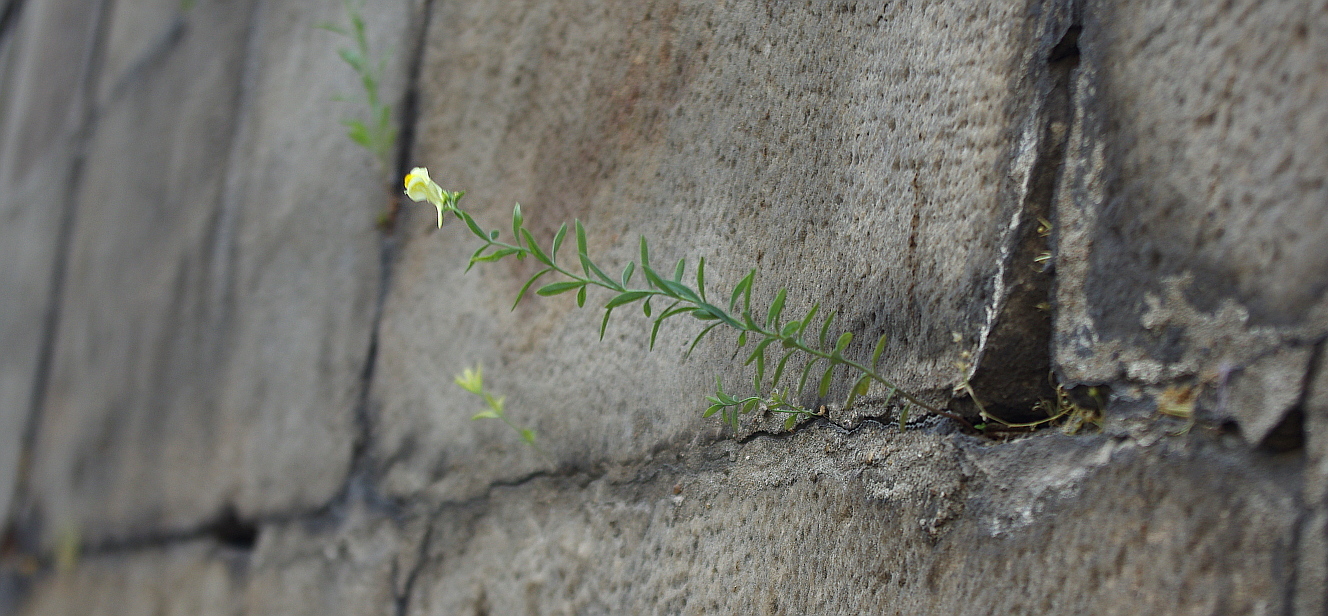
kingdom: Plantae
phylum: Tracheophyta
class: Magnoliopsida
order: Lamiales
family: Plantaginaceae
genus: Linaria
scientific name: Linaria vulgaris
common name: Butter and eggs
